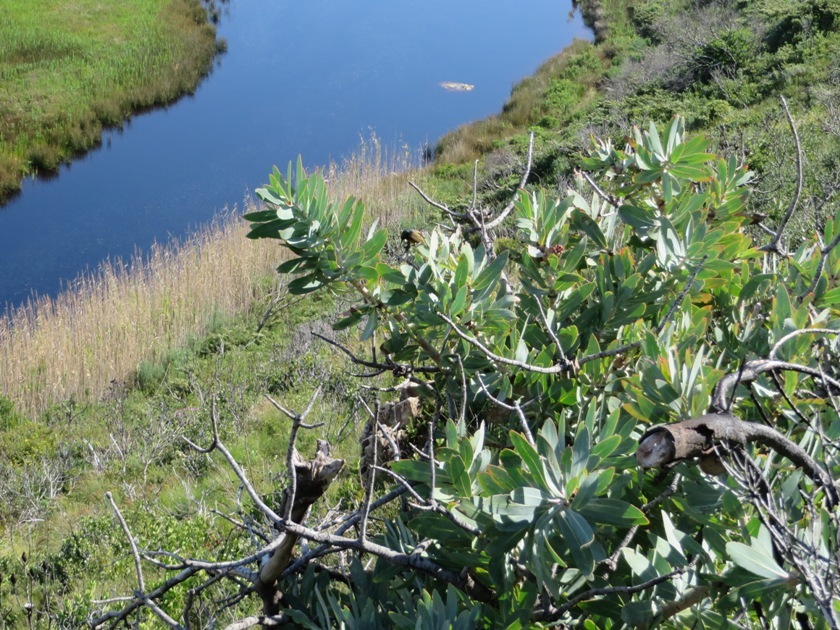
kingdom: Plantae
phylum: Tracheophyta
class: Magnoliopsida
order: Proteales
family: Proteaceae
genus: Protea
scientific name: Protea nitida
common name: Tree protea
